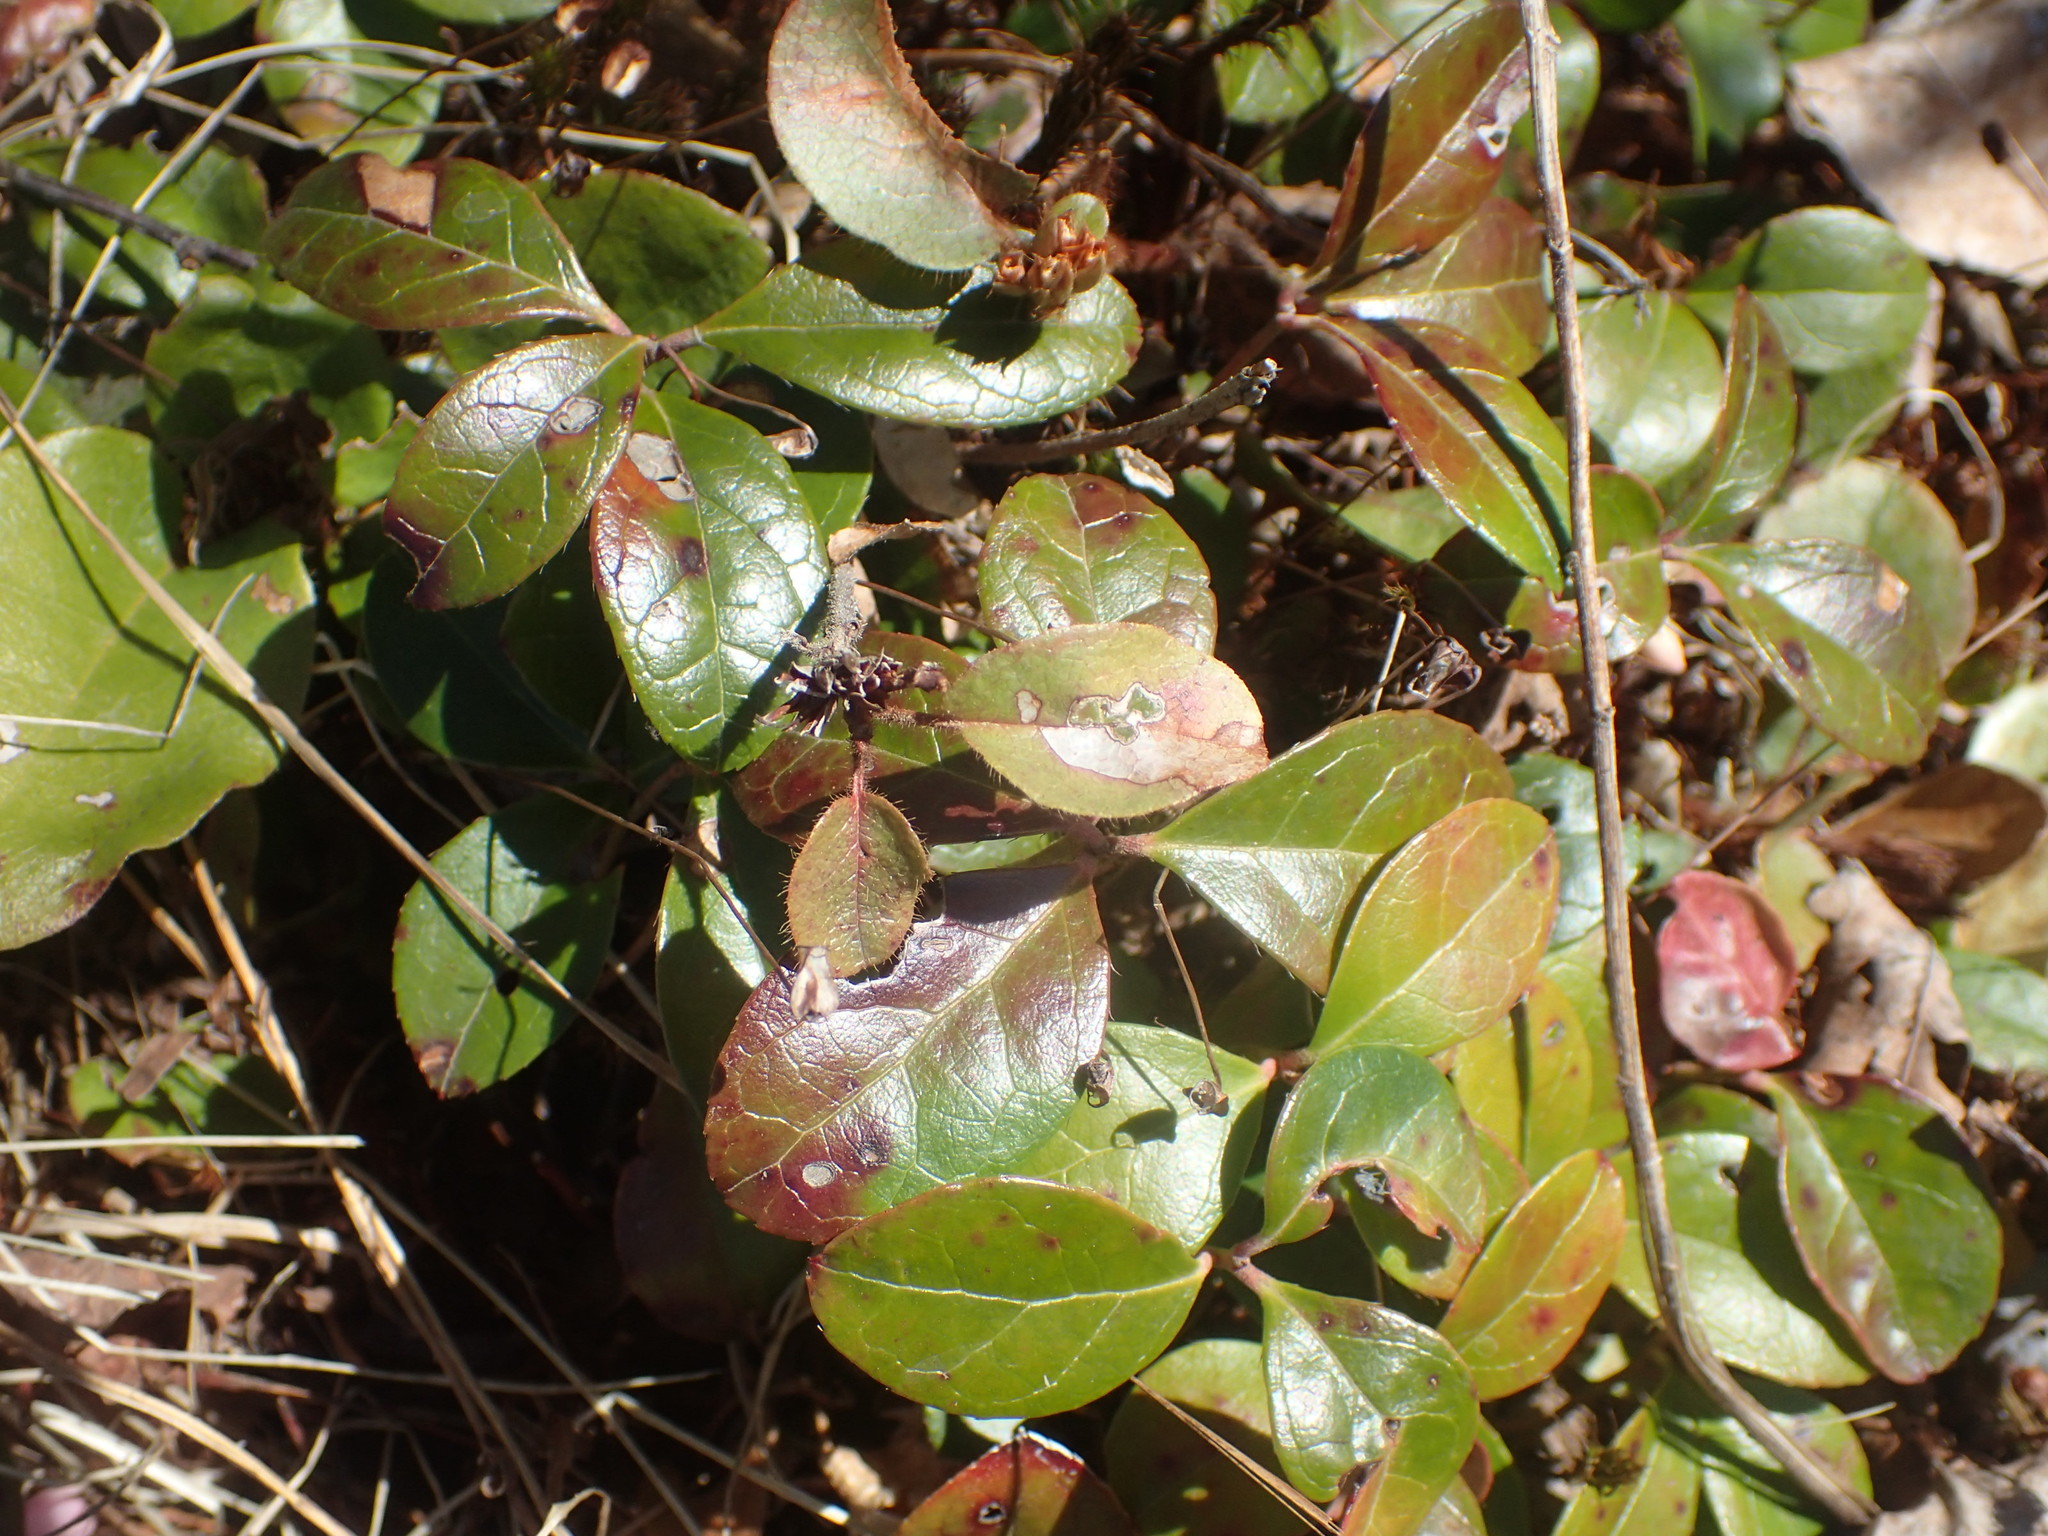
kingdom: Plantae
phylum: Tracheophyta
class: Magnoliopsida
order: Ericales
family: Ericaceae
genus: Gaultheria
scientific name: Gaultheria procumbens
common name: Checkerberry
